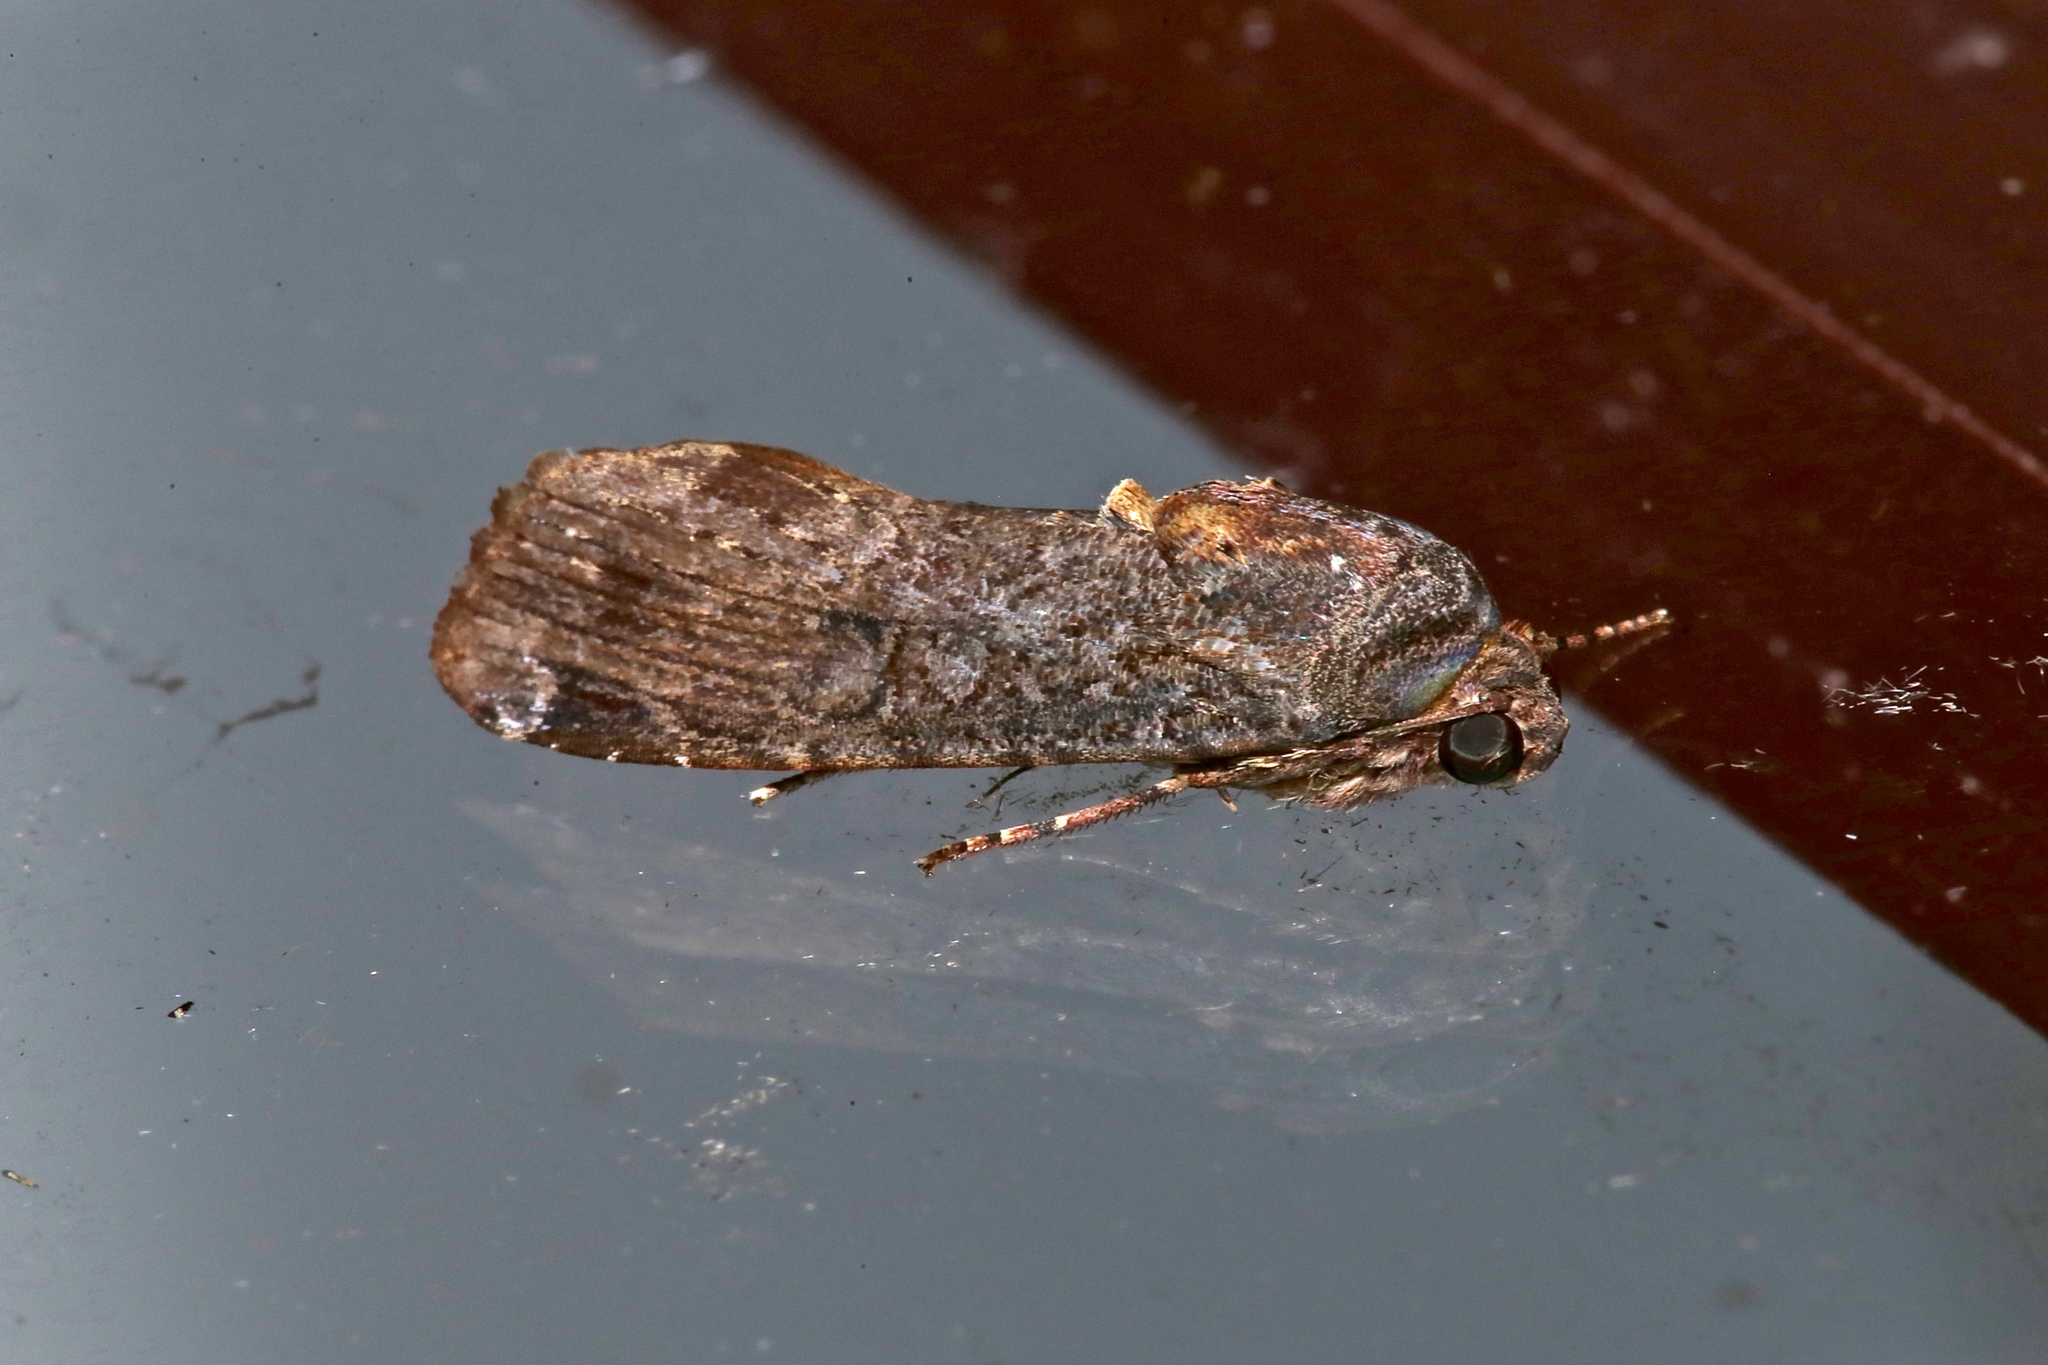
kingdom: Animalia
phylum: Arthropoda
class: Insecta
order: Lepidoptera
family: Noctuidae
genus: Magusa
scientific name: Magusa divaricata
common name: Orb narrow-winged moth
